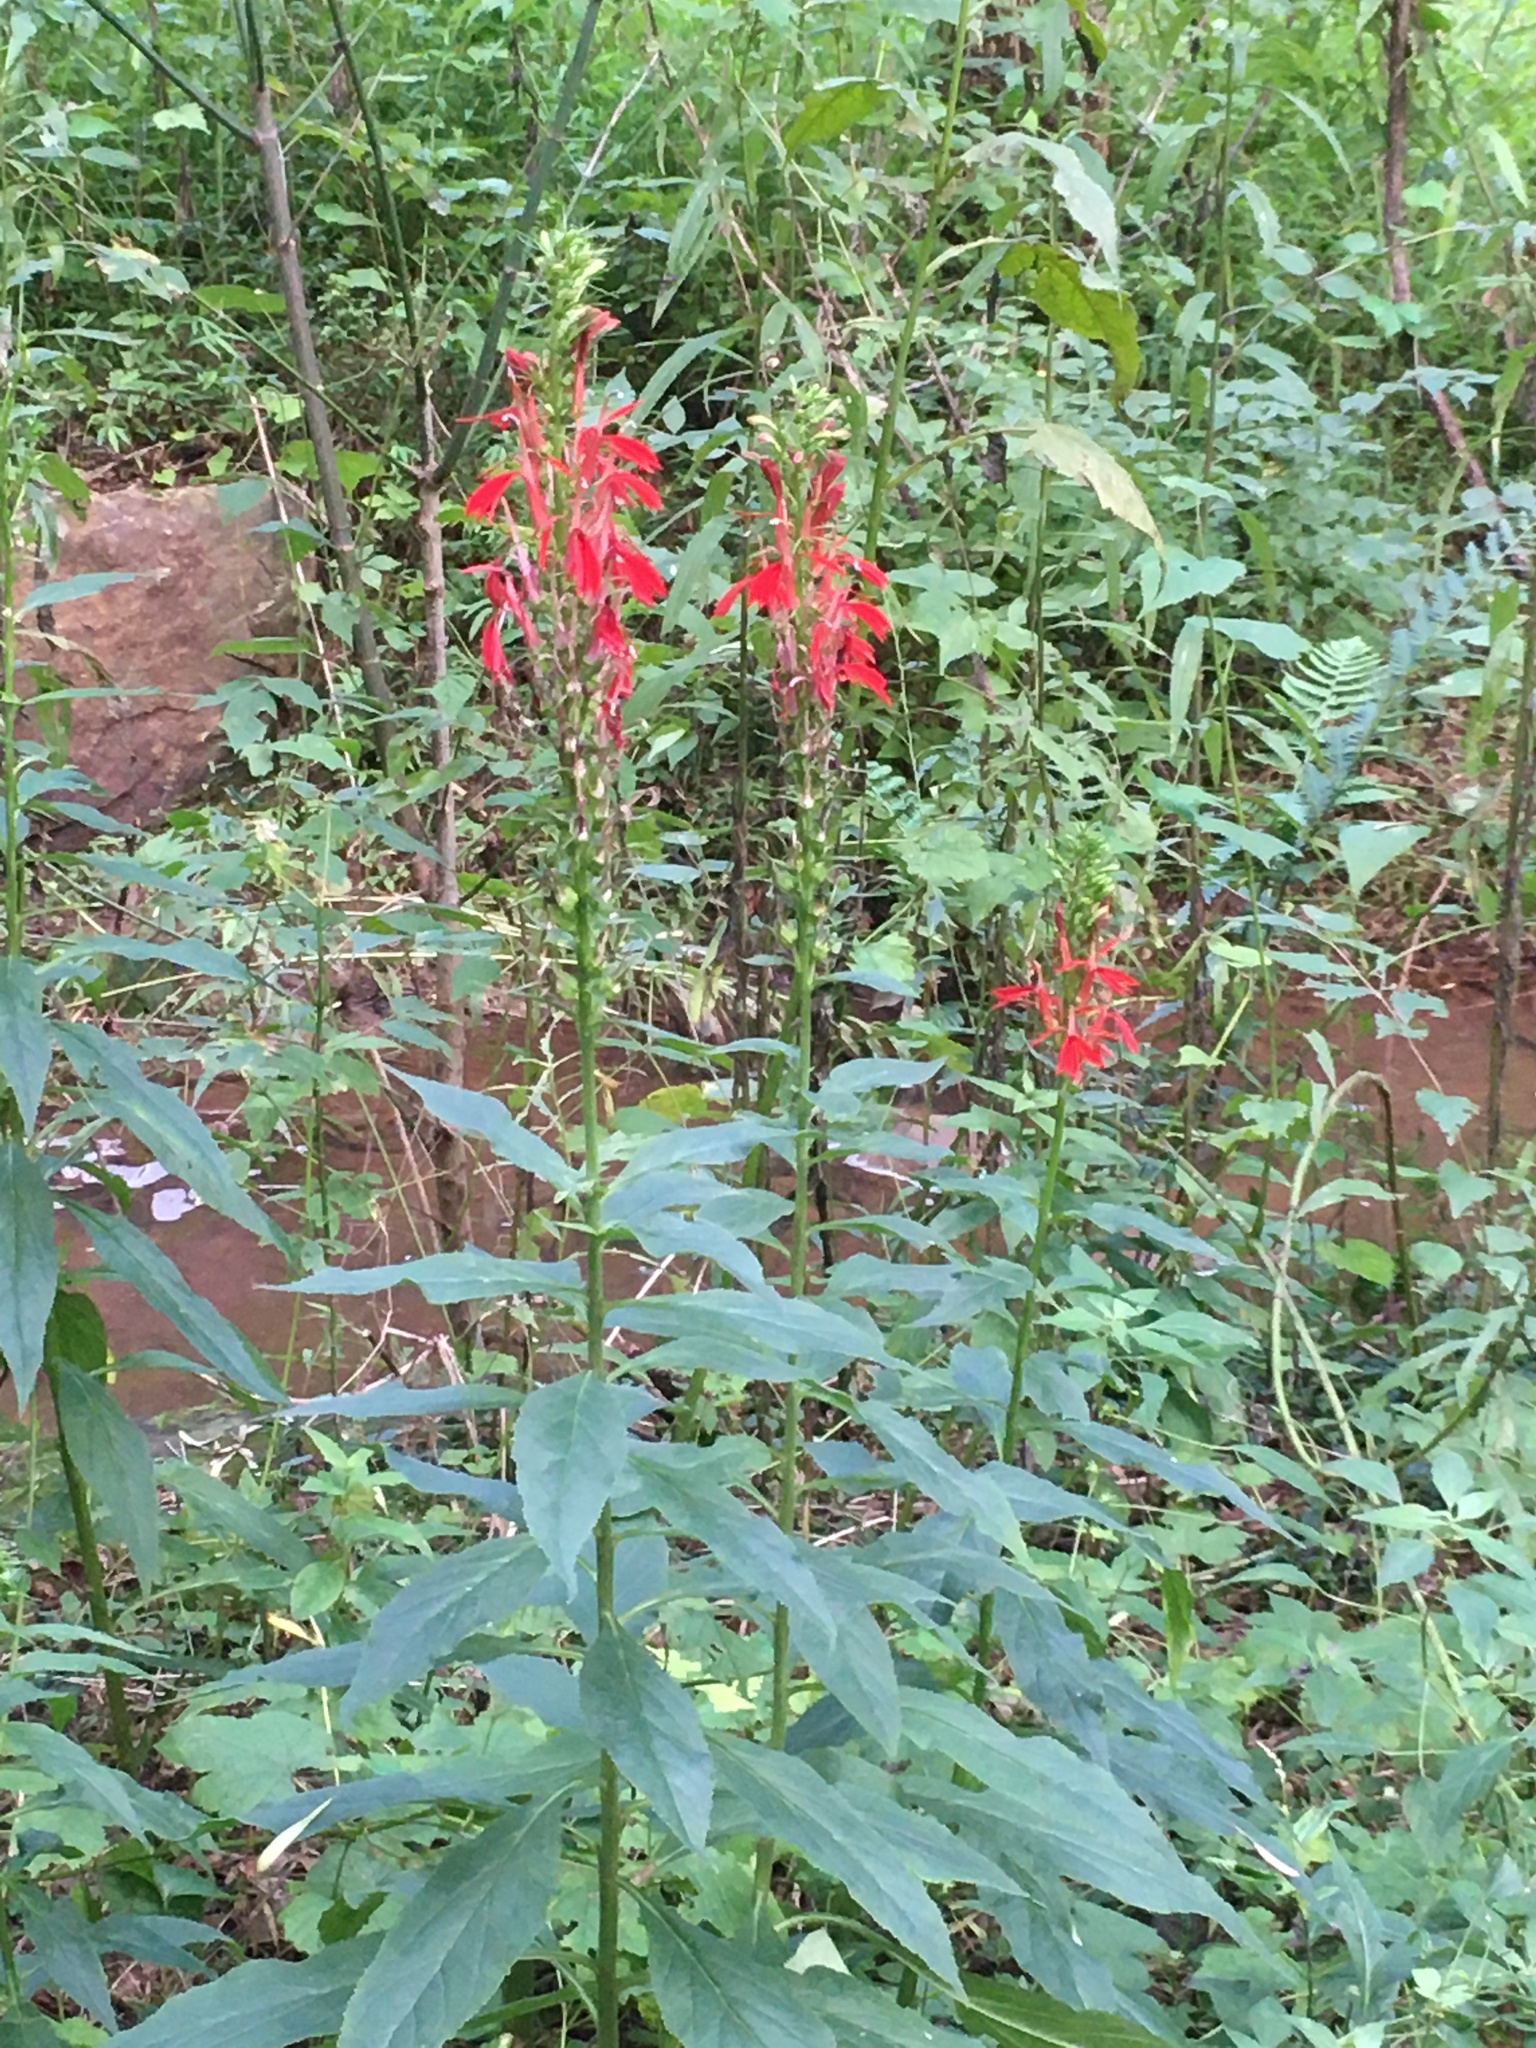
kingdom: Plantae
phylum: Tracheophyta
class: Magnoliopsida
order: Asterales
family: Campanulaceae
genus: Lobelia
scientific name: Lobelia cardinalis
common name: Cardinal flower
